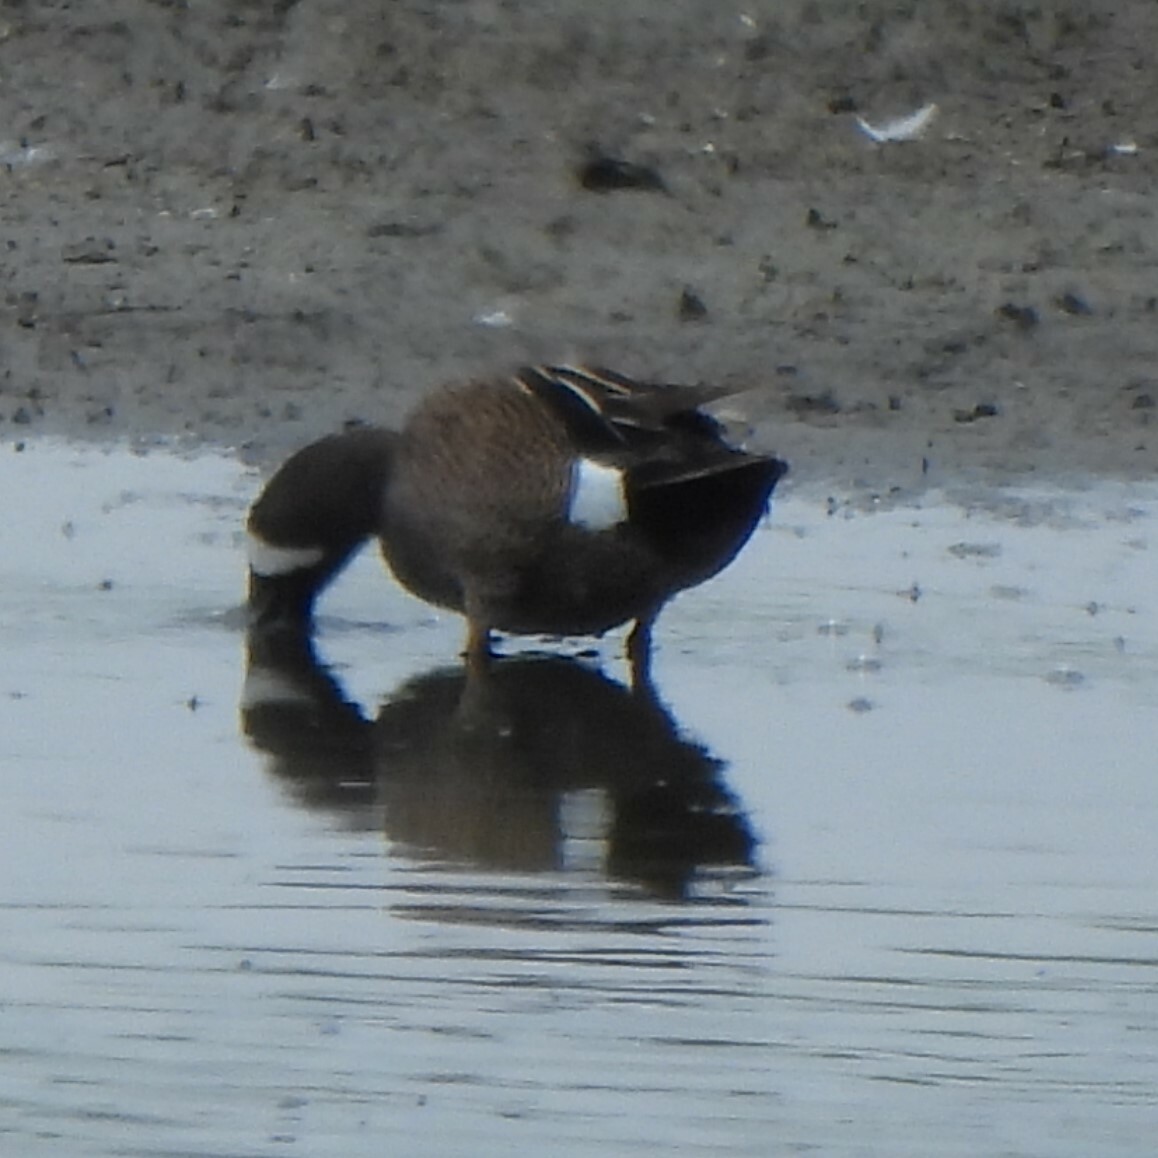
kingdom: Animalia
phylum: Chordata
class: Aves
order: Anseriformes
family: Anatidae
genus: Spatula
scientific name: Spatula discors
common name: Blue-winged teal
